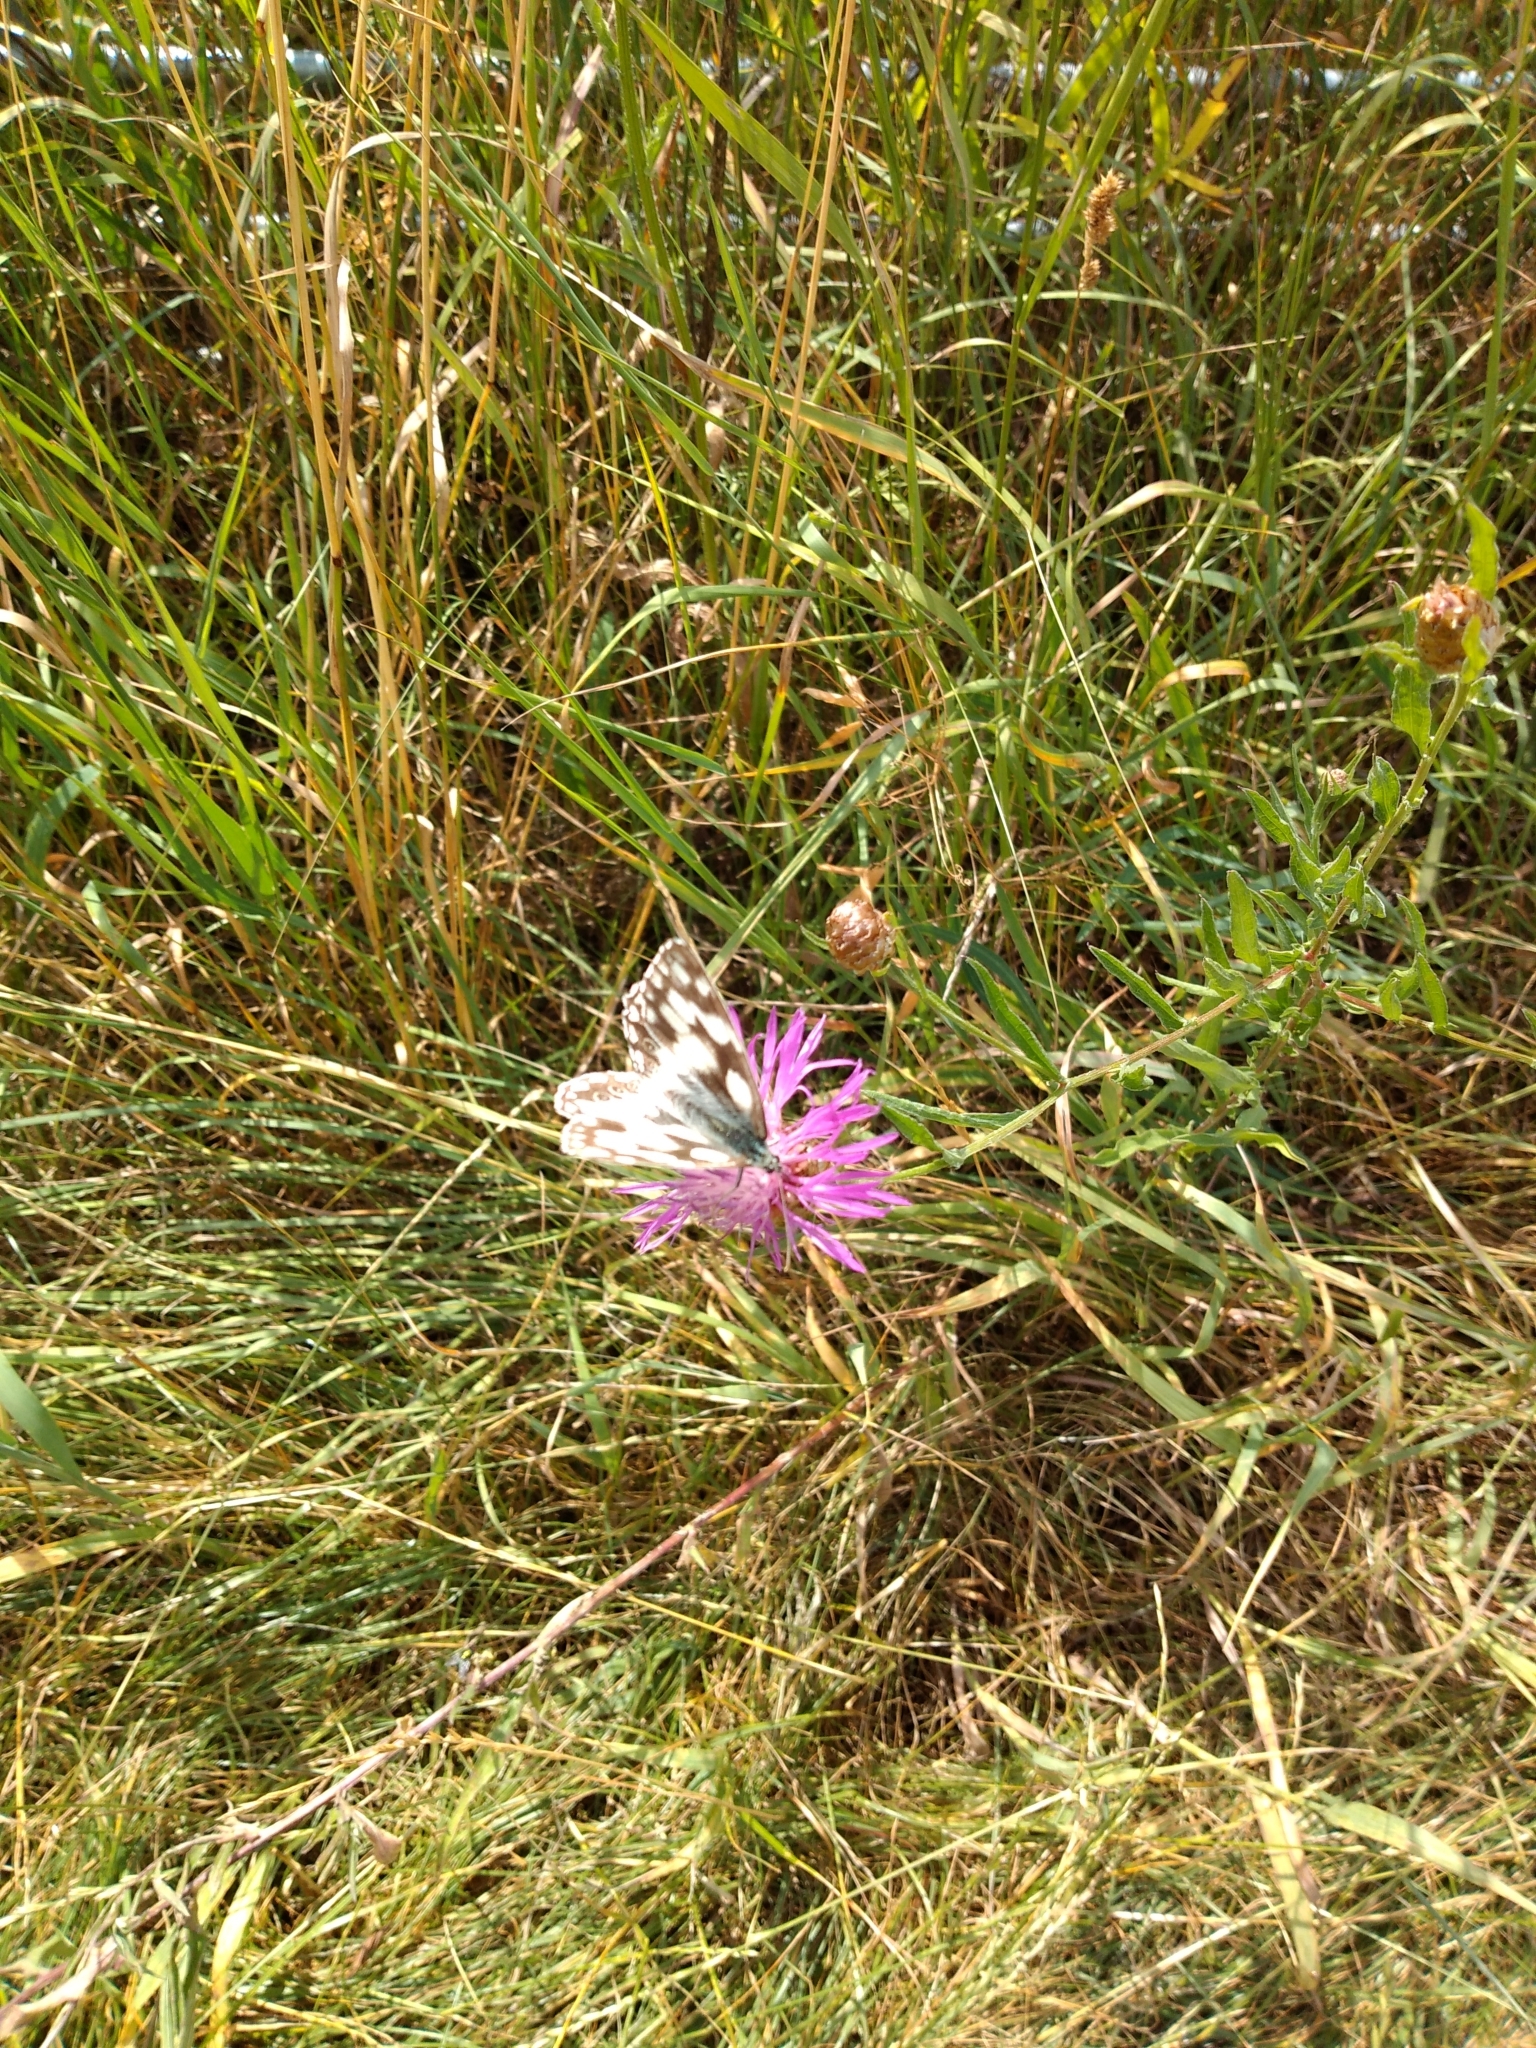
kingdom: Animalia
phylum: Arthropoda
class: Insecta
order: Lepidoptera
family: Nymphalidae
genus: Melanargia
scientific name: Melanargia galathea
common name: Marbled white
